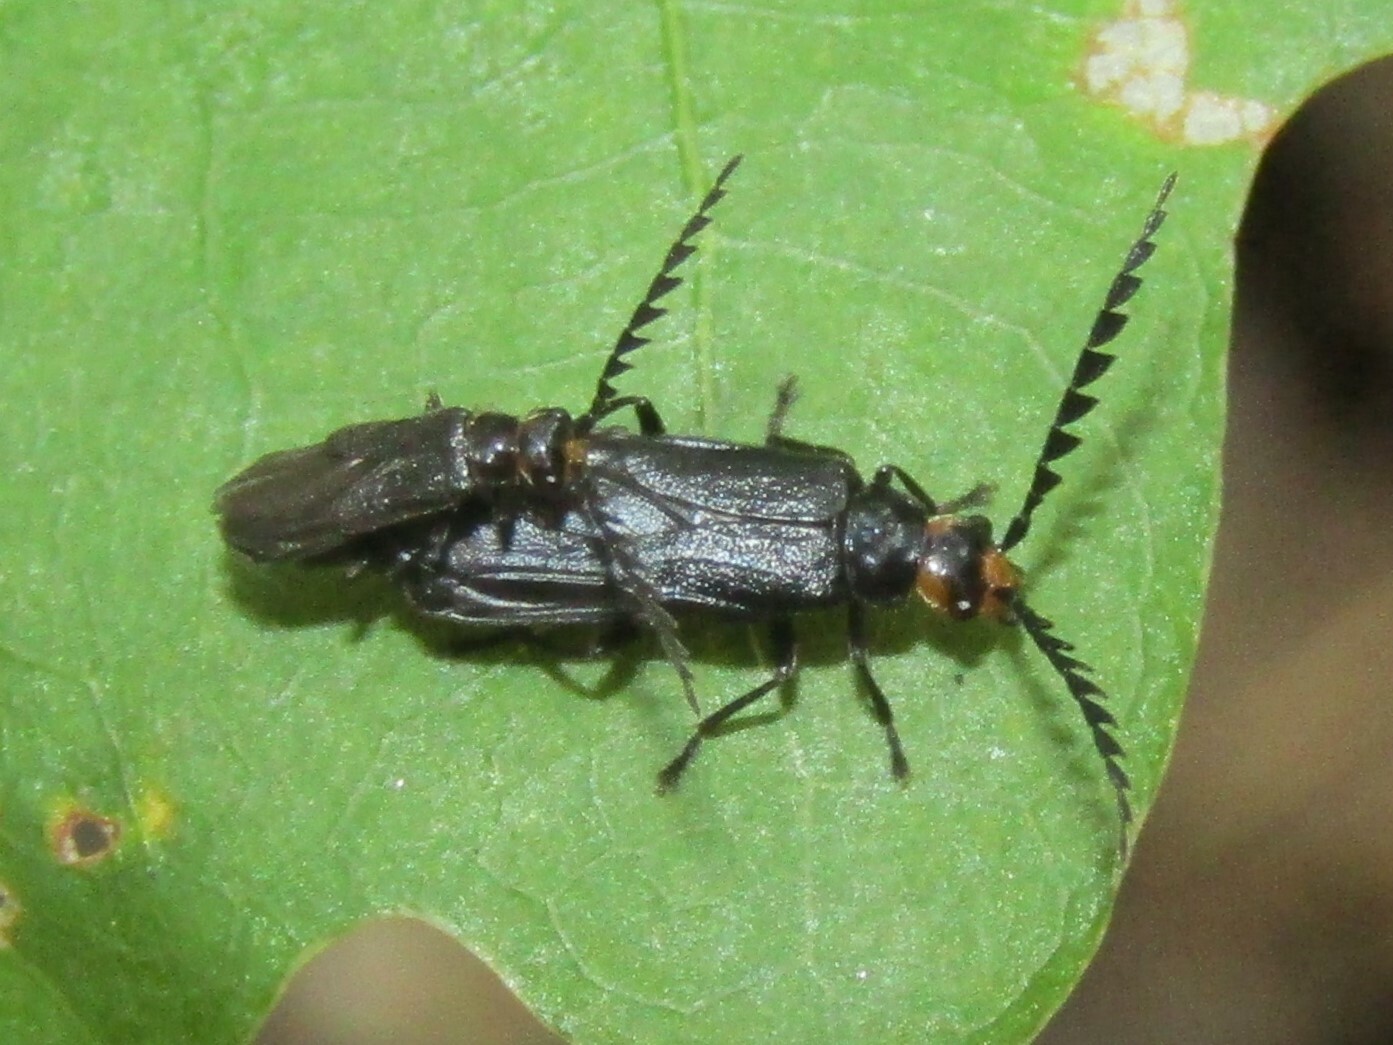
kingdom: Animalia
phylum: Arthropoda
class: Insecta
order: Coleoptera
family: Cantharidae
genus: Tytthonyx
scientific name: Tytthonyx erythrocephalus
